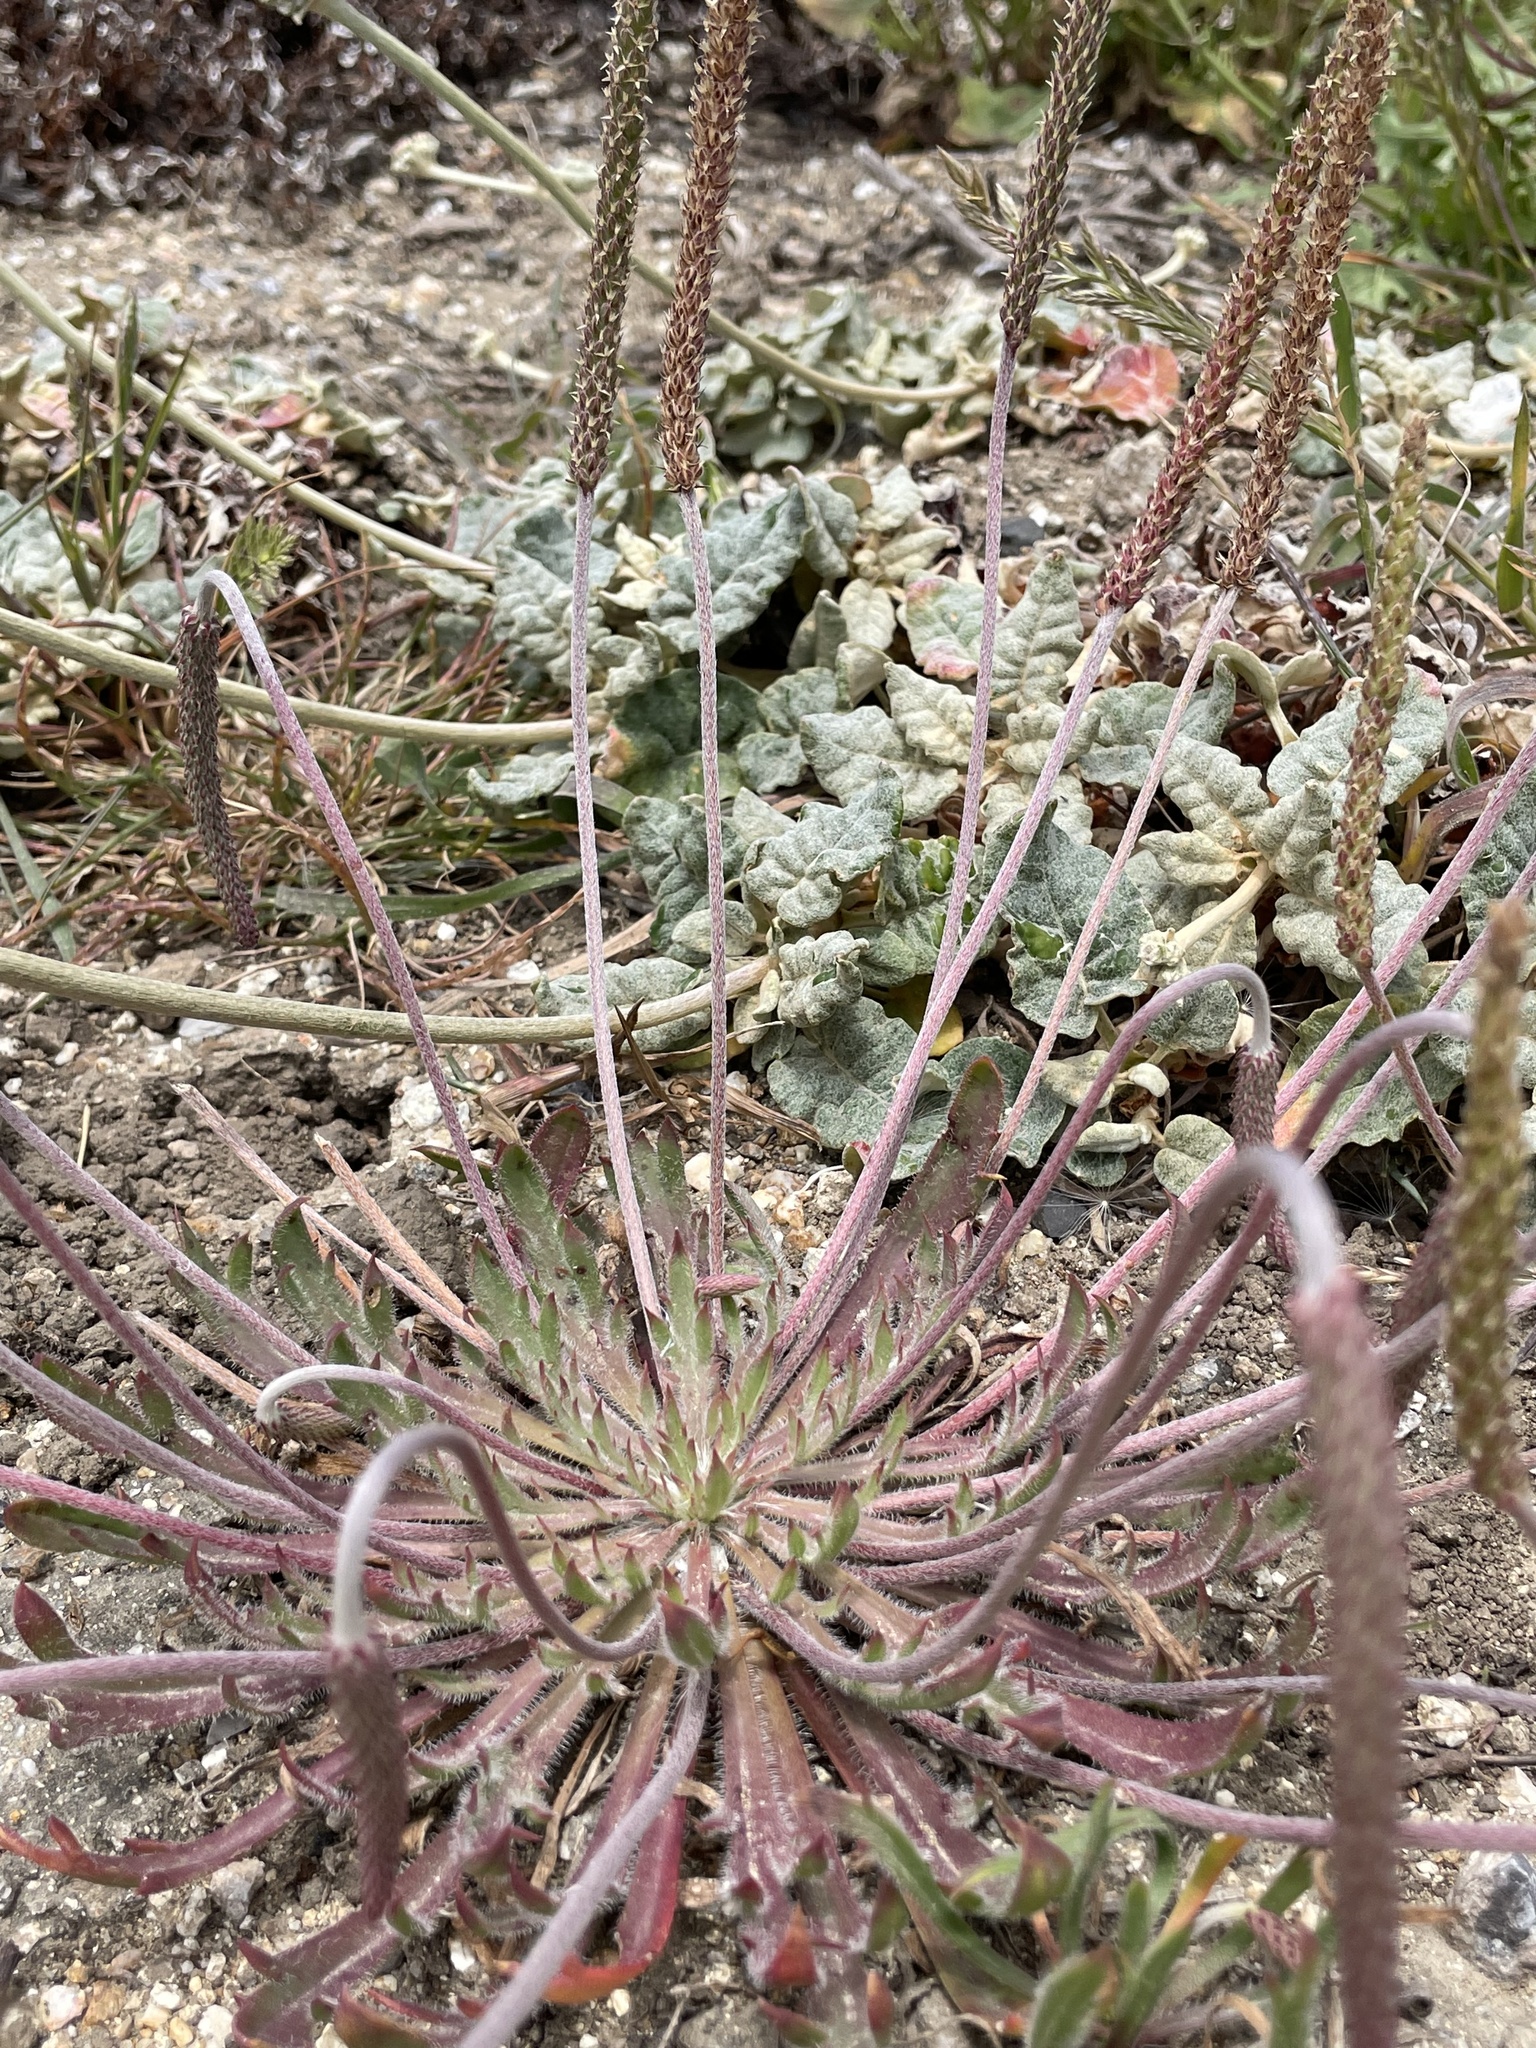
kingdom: Plantae
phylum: Tracheophyta
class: Magnoliopsida
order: Lamiales
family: Plantaginaceae
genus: Plantago
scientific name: Plantago coronopus
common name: Buck's-horn plantain
